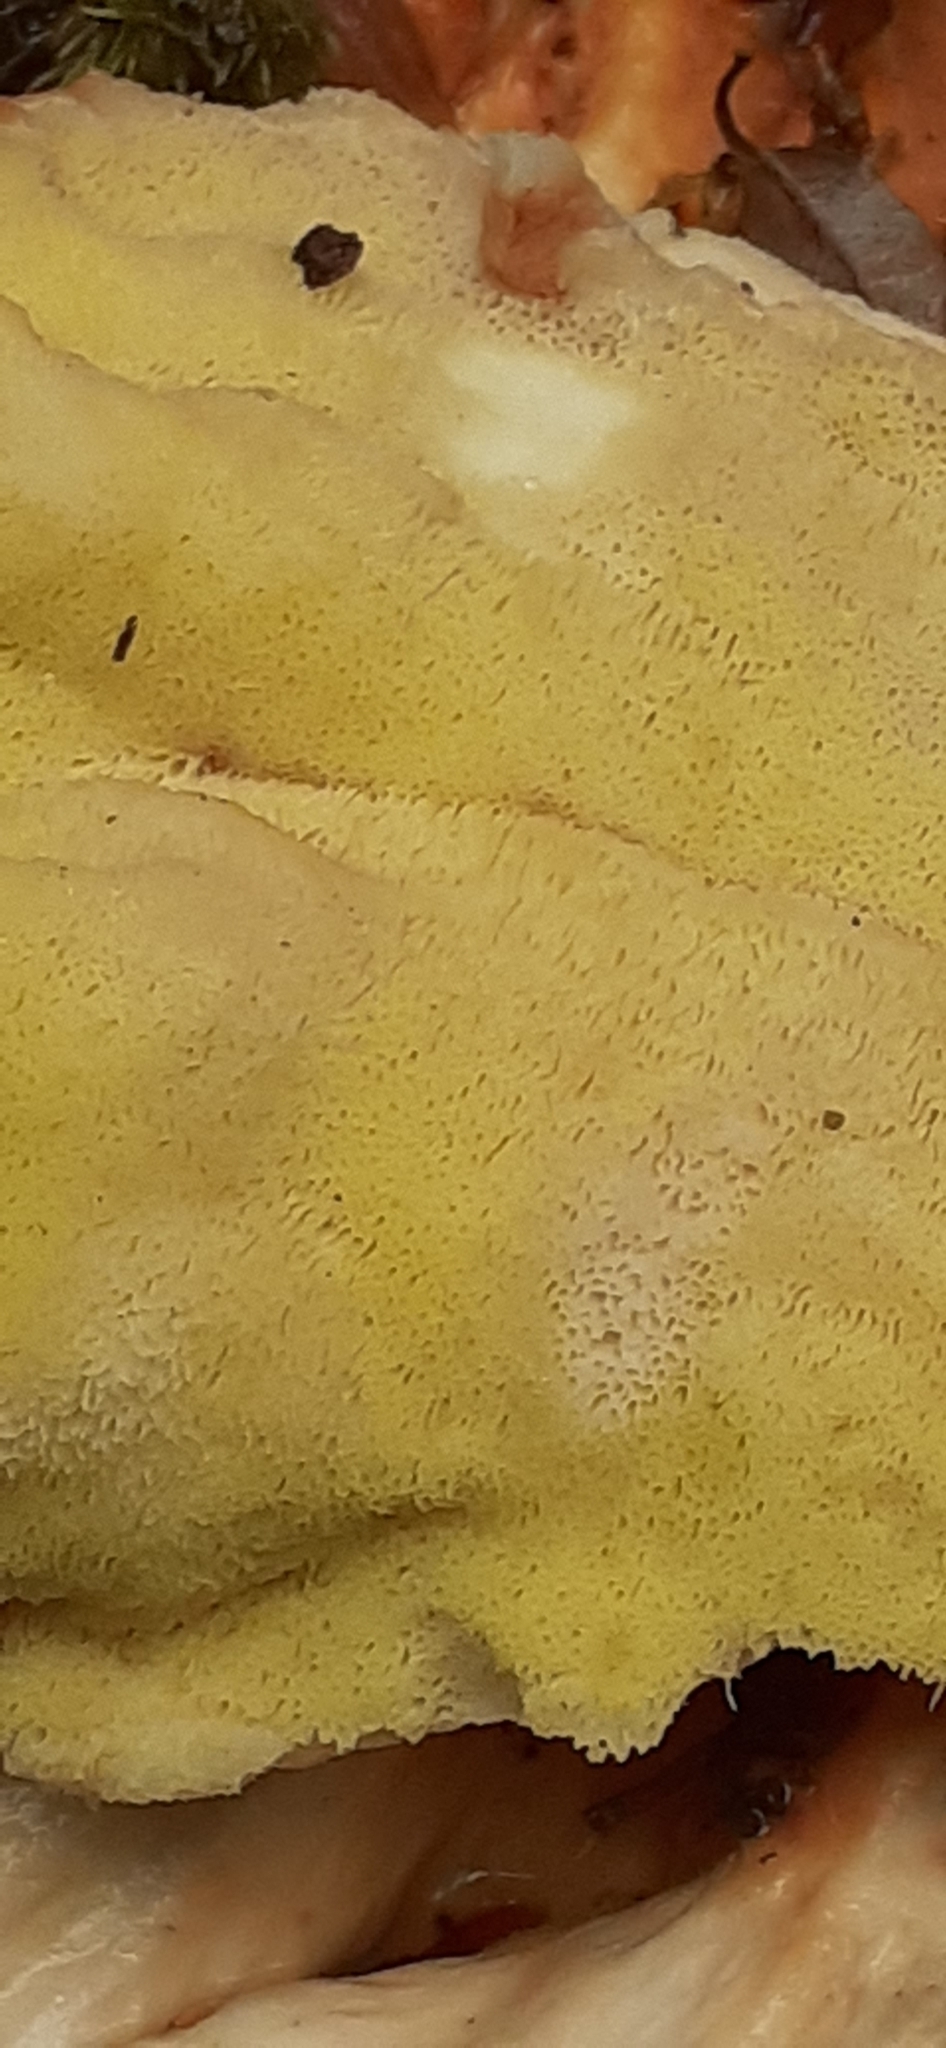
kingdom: Fungi
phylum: Basidiomycota
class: Agaricomycetes
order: Polyporales
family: Laetiporaceae
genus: Laetiporus
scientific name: Laetiporus sulphureus
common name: Chicken of the woods
